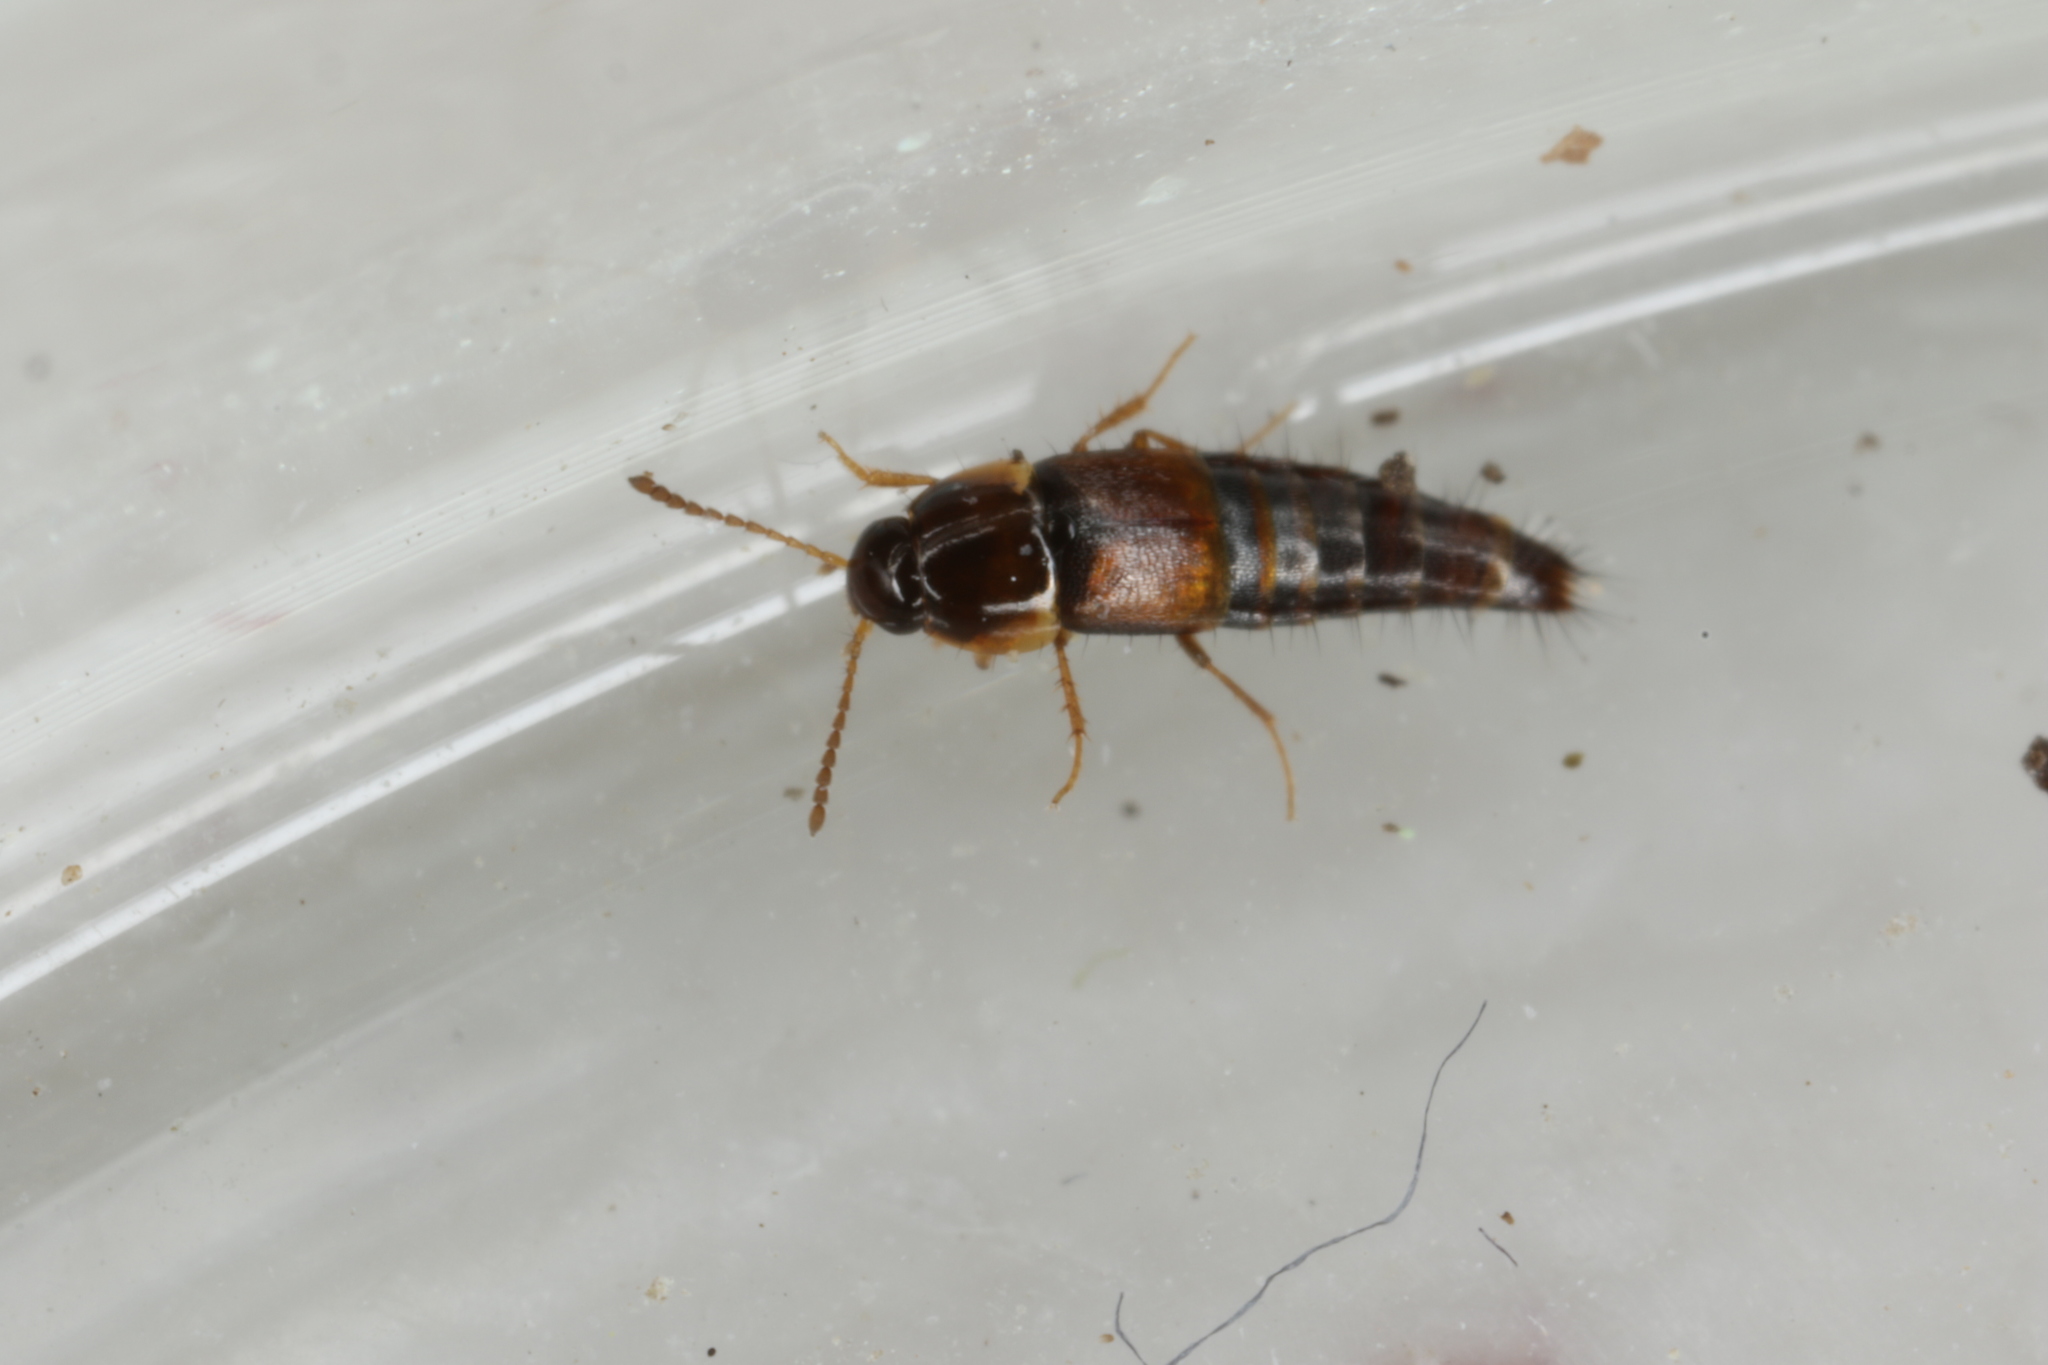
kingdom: Animalia
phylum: Arthropoda
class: Insecta
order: Coleoptera
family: Staphylinidae
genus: Palporus
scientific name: Palporus nitidulus
